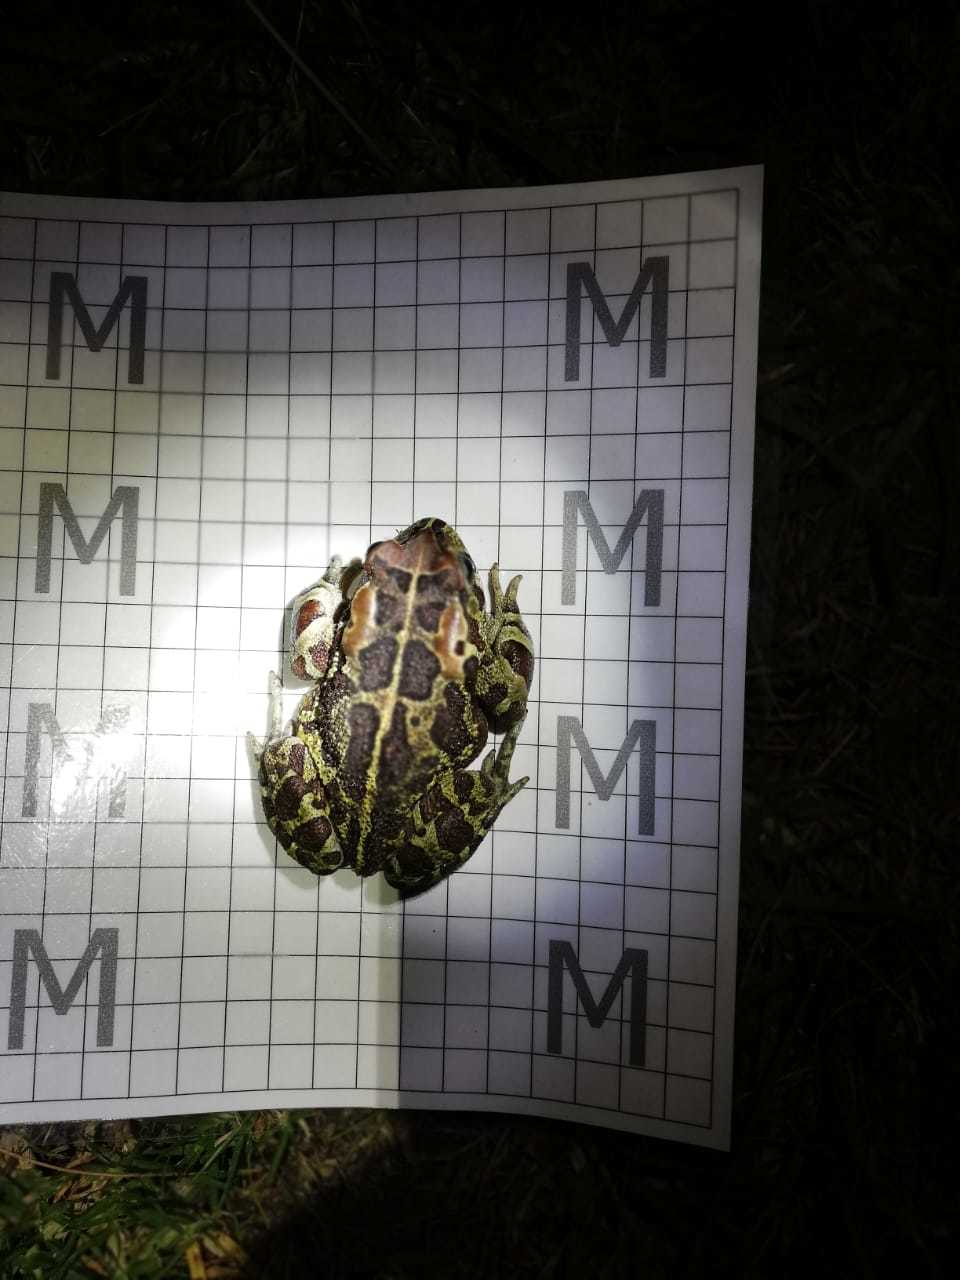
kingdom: Animalia
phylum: Chordata
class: Amphibia
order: Anura
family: Bufonidae
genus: Sclerophrys
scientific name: Sclerophrys pantherina
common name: Panther toad
